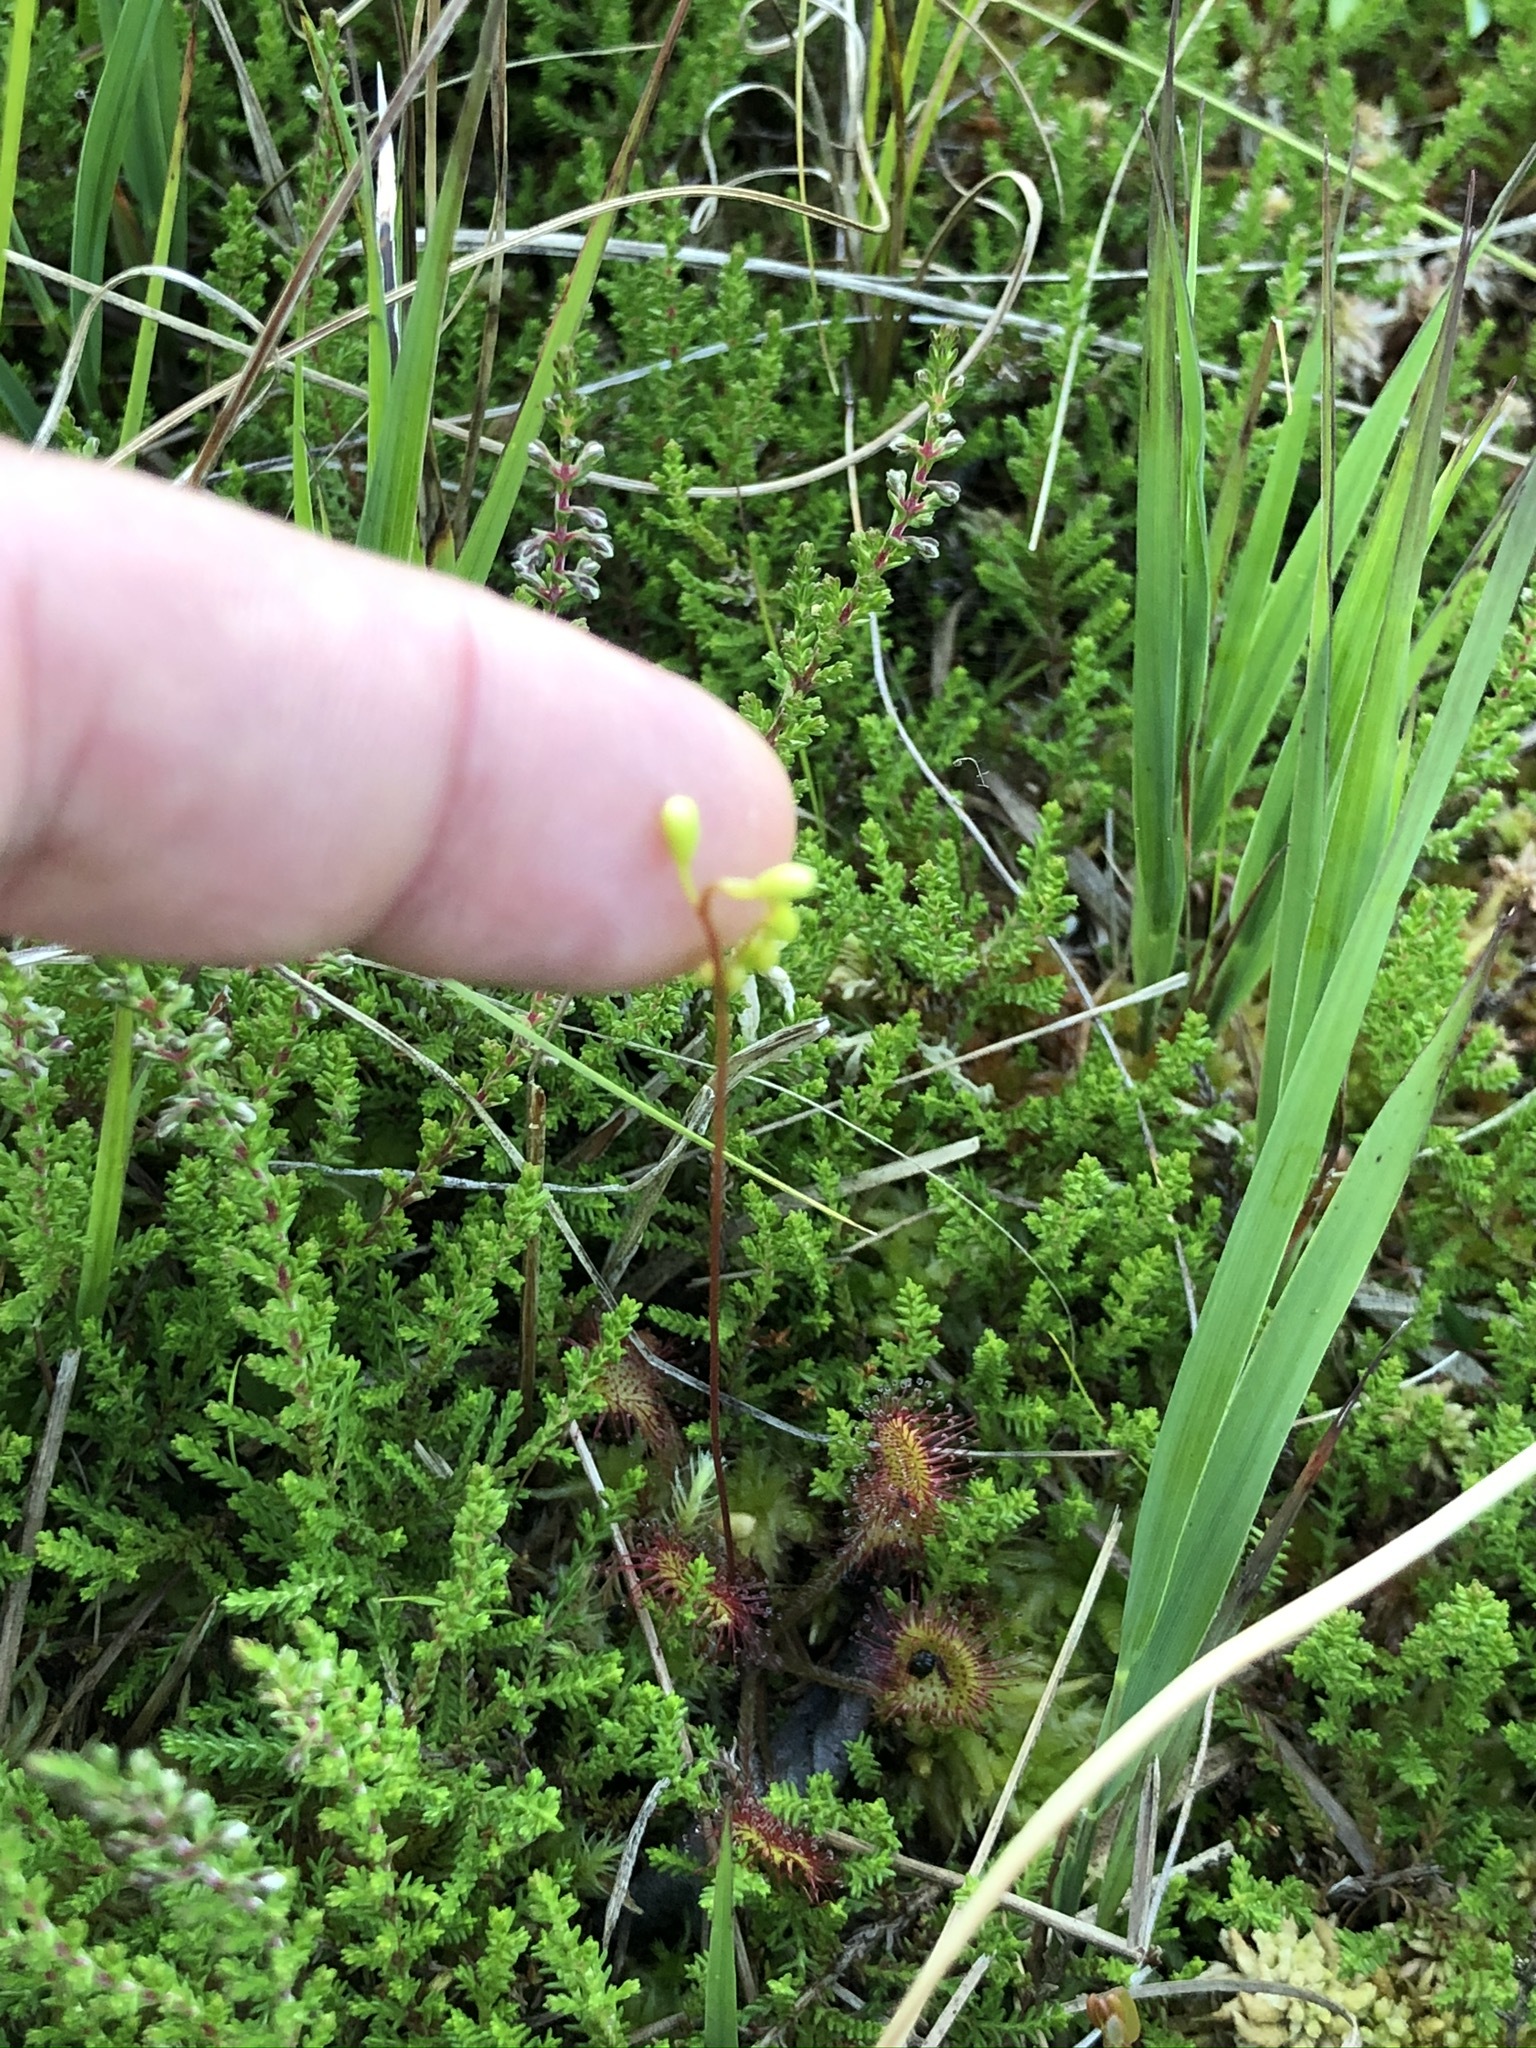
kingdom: Plantae
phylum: Tracheophyta
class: Magnoliopsida
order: Caryophyllales
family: Droseraceae
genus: Drosera
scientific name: Drosera rotundifolia
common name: Round-leaved sundew
